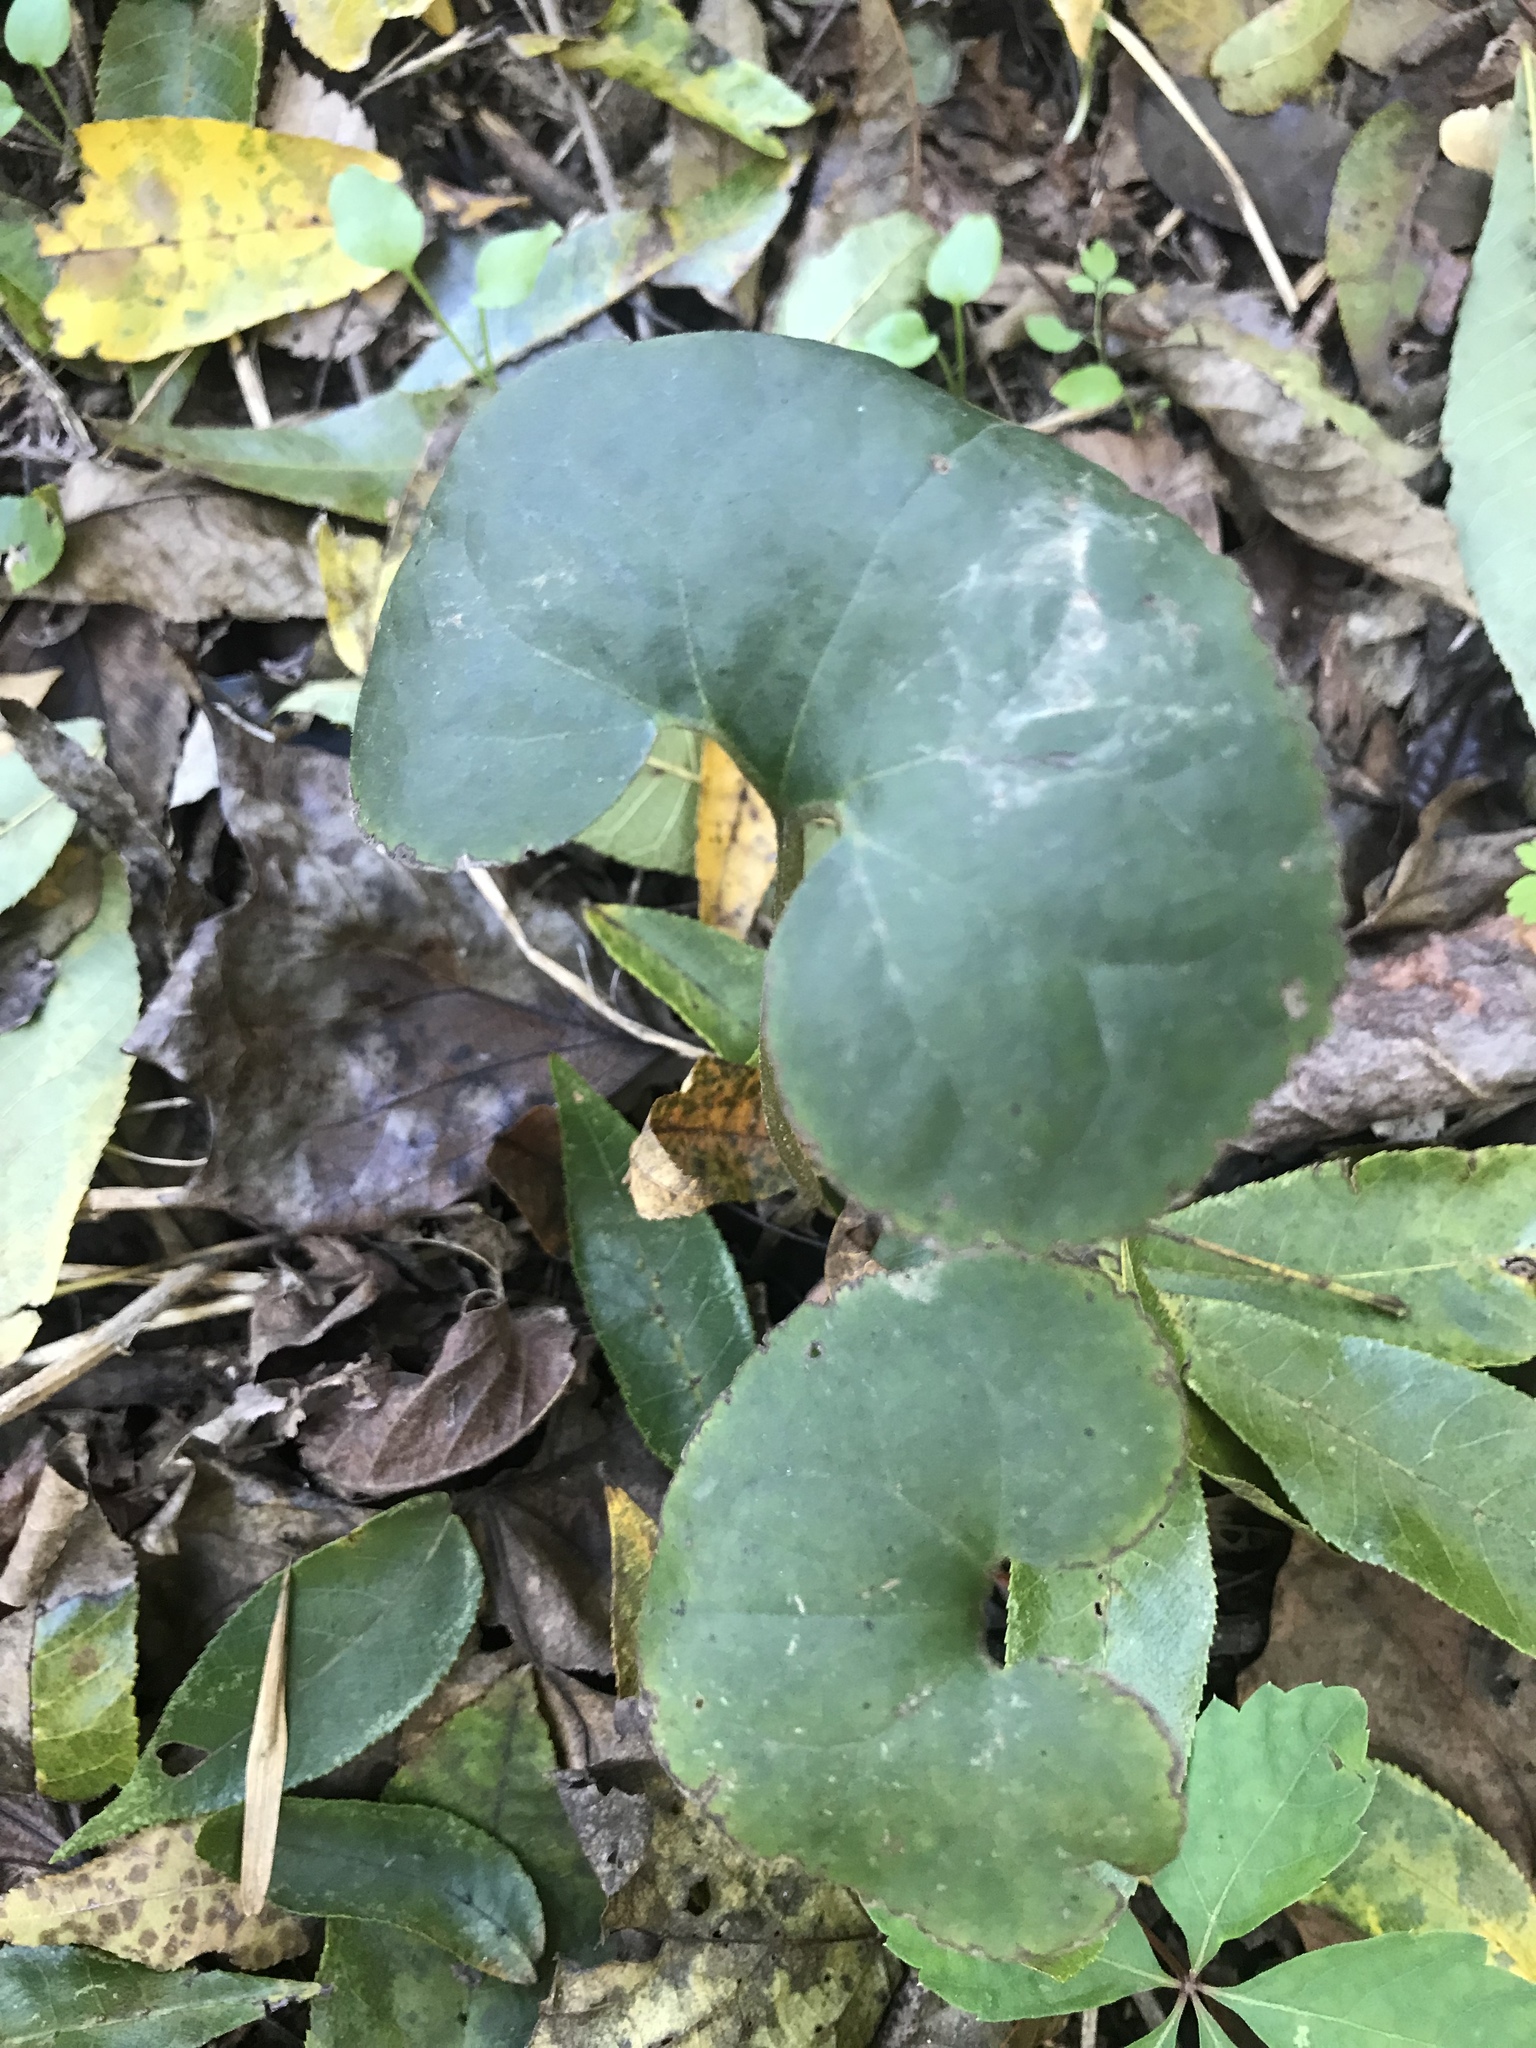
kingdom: Plantae
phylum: Tracheophyta
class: Magnoliopsida
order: Piperales
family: Aristolochiaceae
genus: Asarum
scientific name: Asarum canadense
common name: Wild ginger
